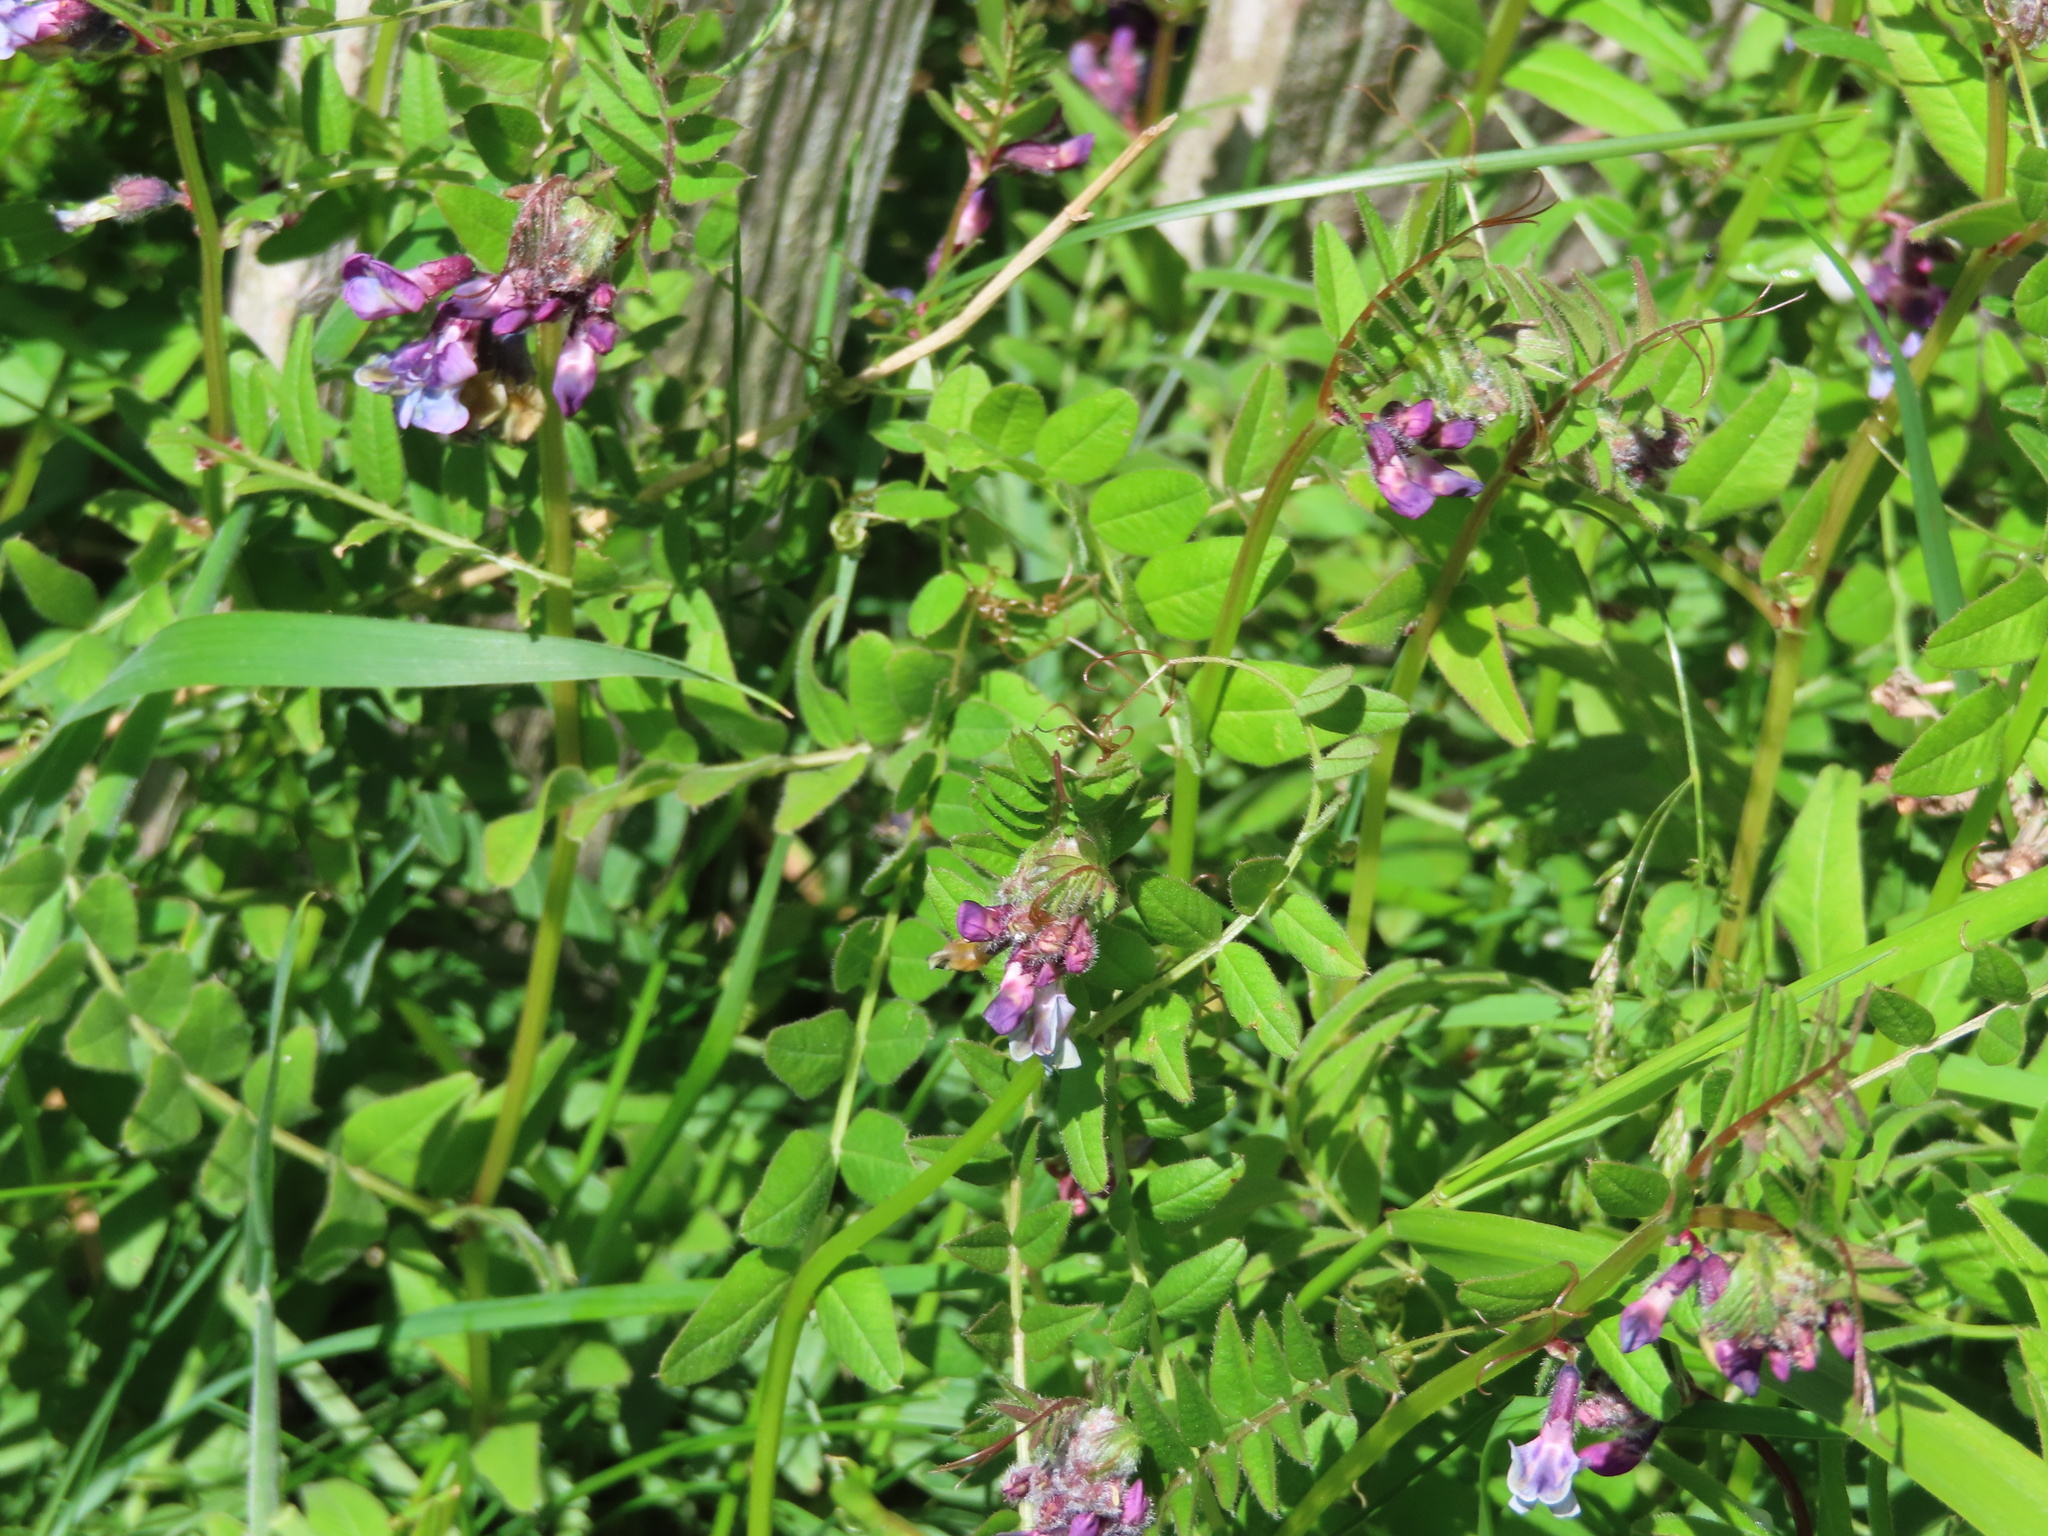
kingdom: Plantae
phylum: Tracheophyta
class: Magnoliopsida
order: Fabales
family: Fabaceae
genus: Vicia
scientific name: Vicia sepium
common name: Bush vetch
